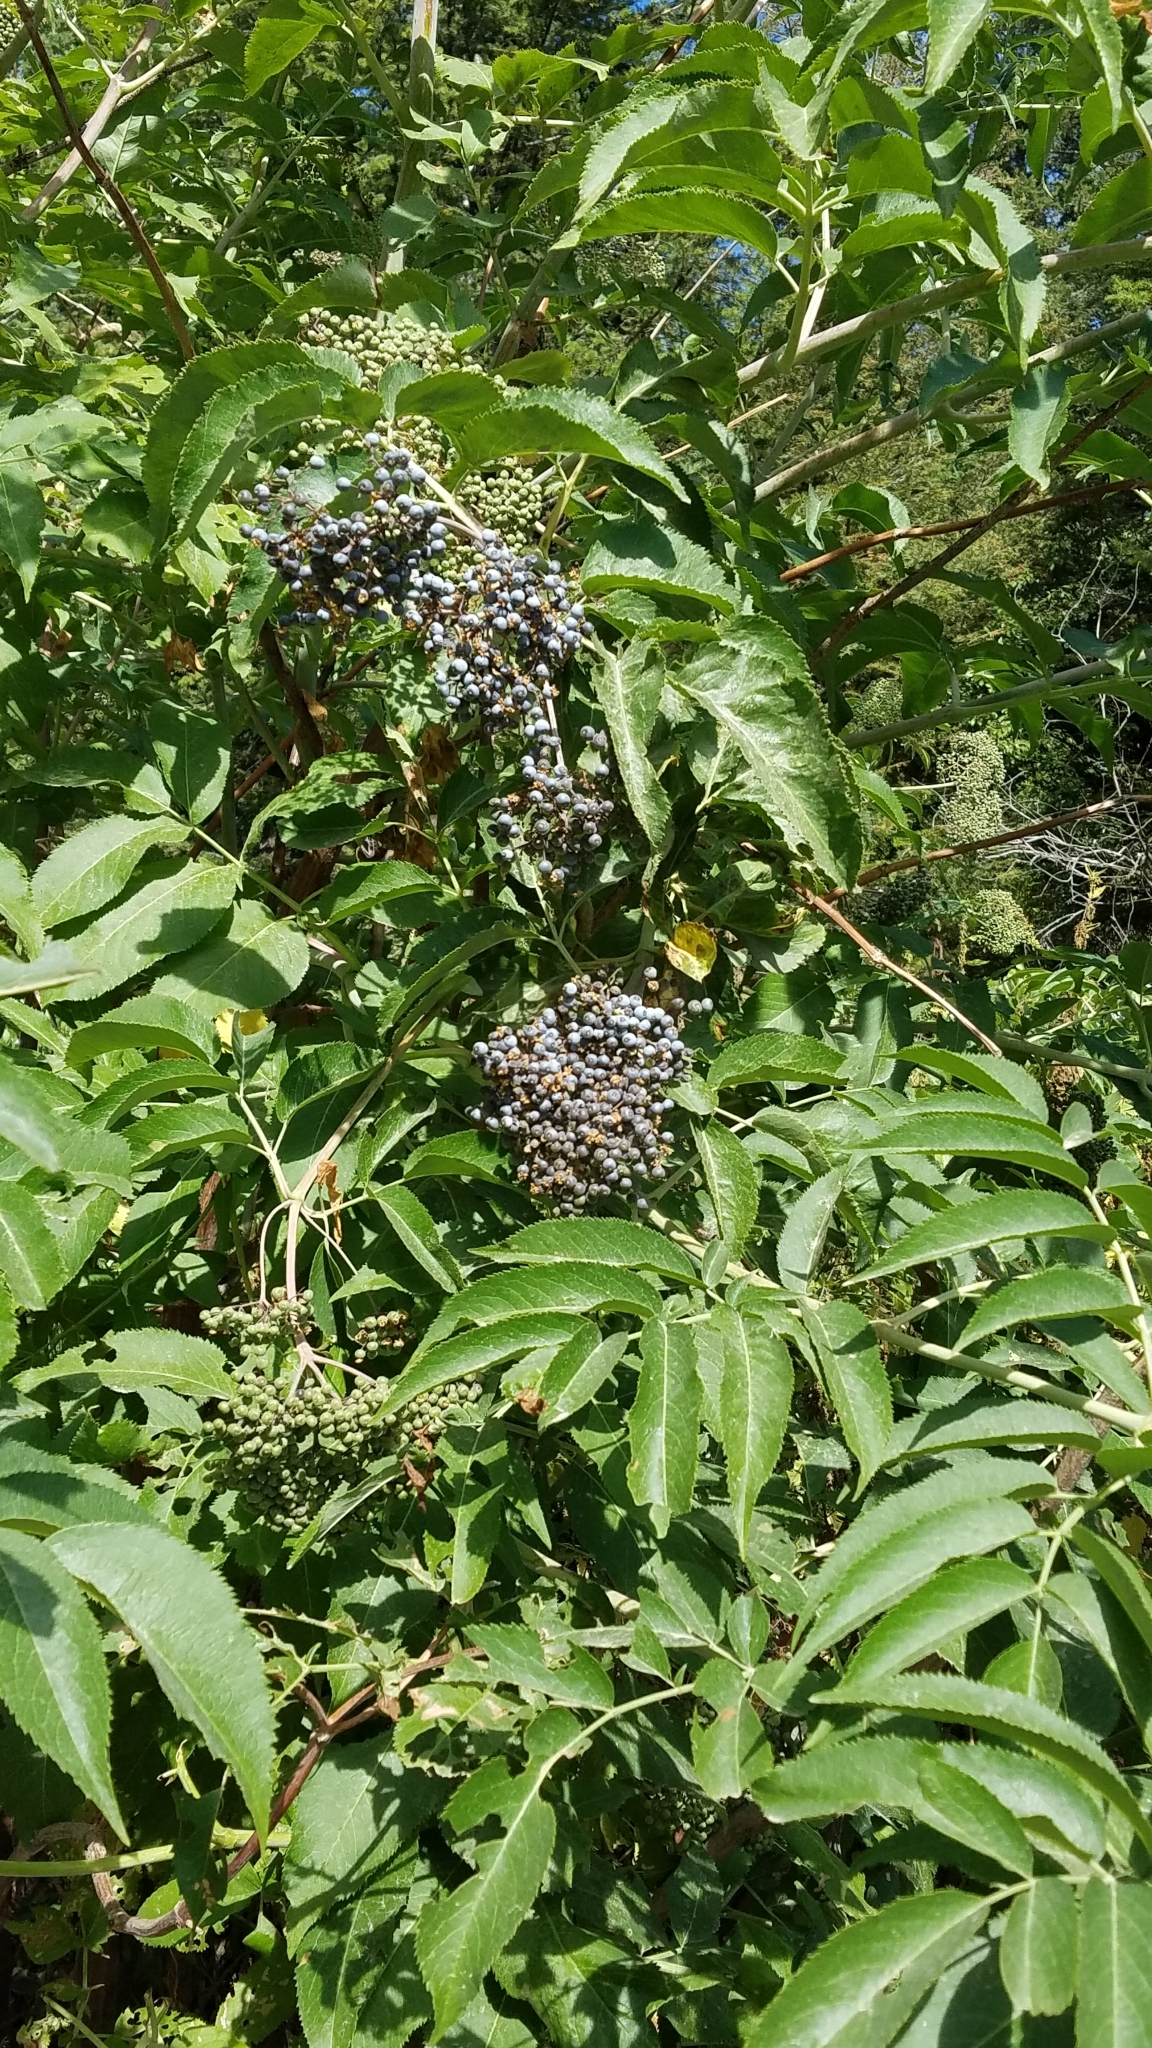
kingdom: Plantae
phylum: Tracheophyta
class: Magnoliopsida
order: Dipsacales
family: Viburnaceae
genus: Sambucus
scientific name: Sambucus cerulea
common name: Blue elder
